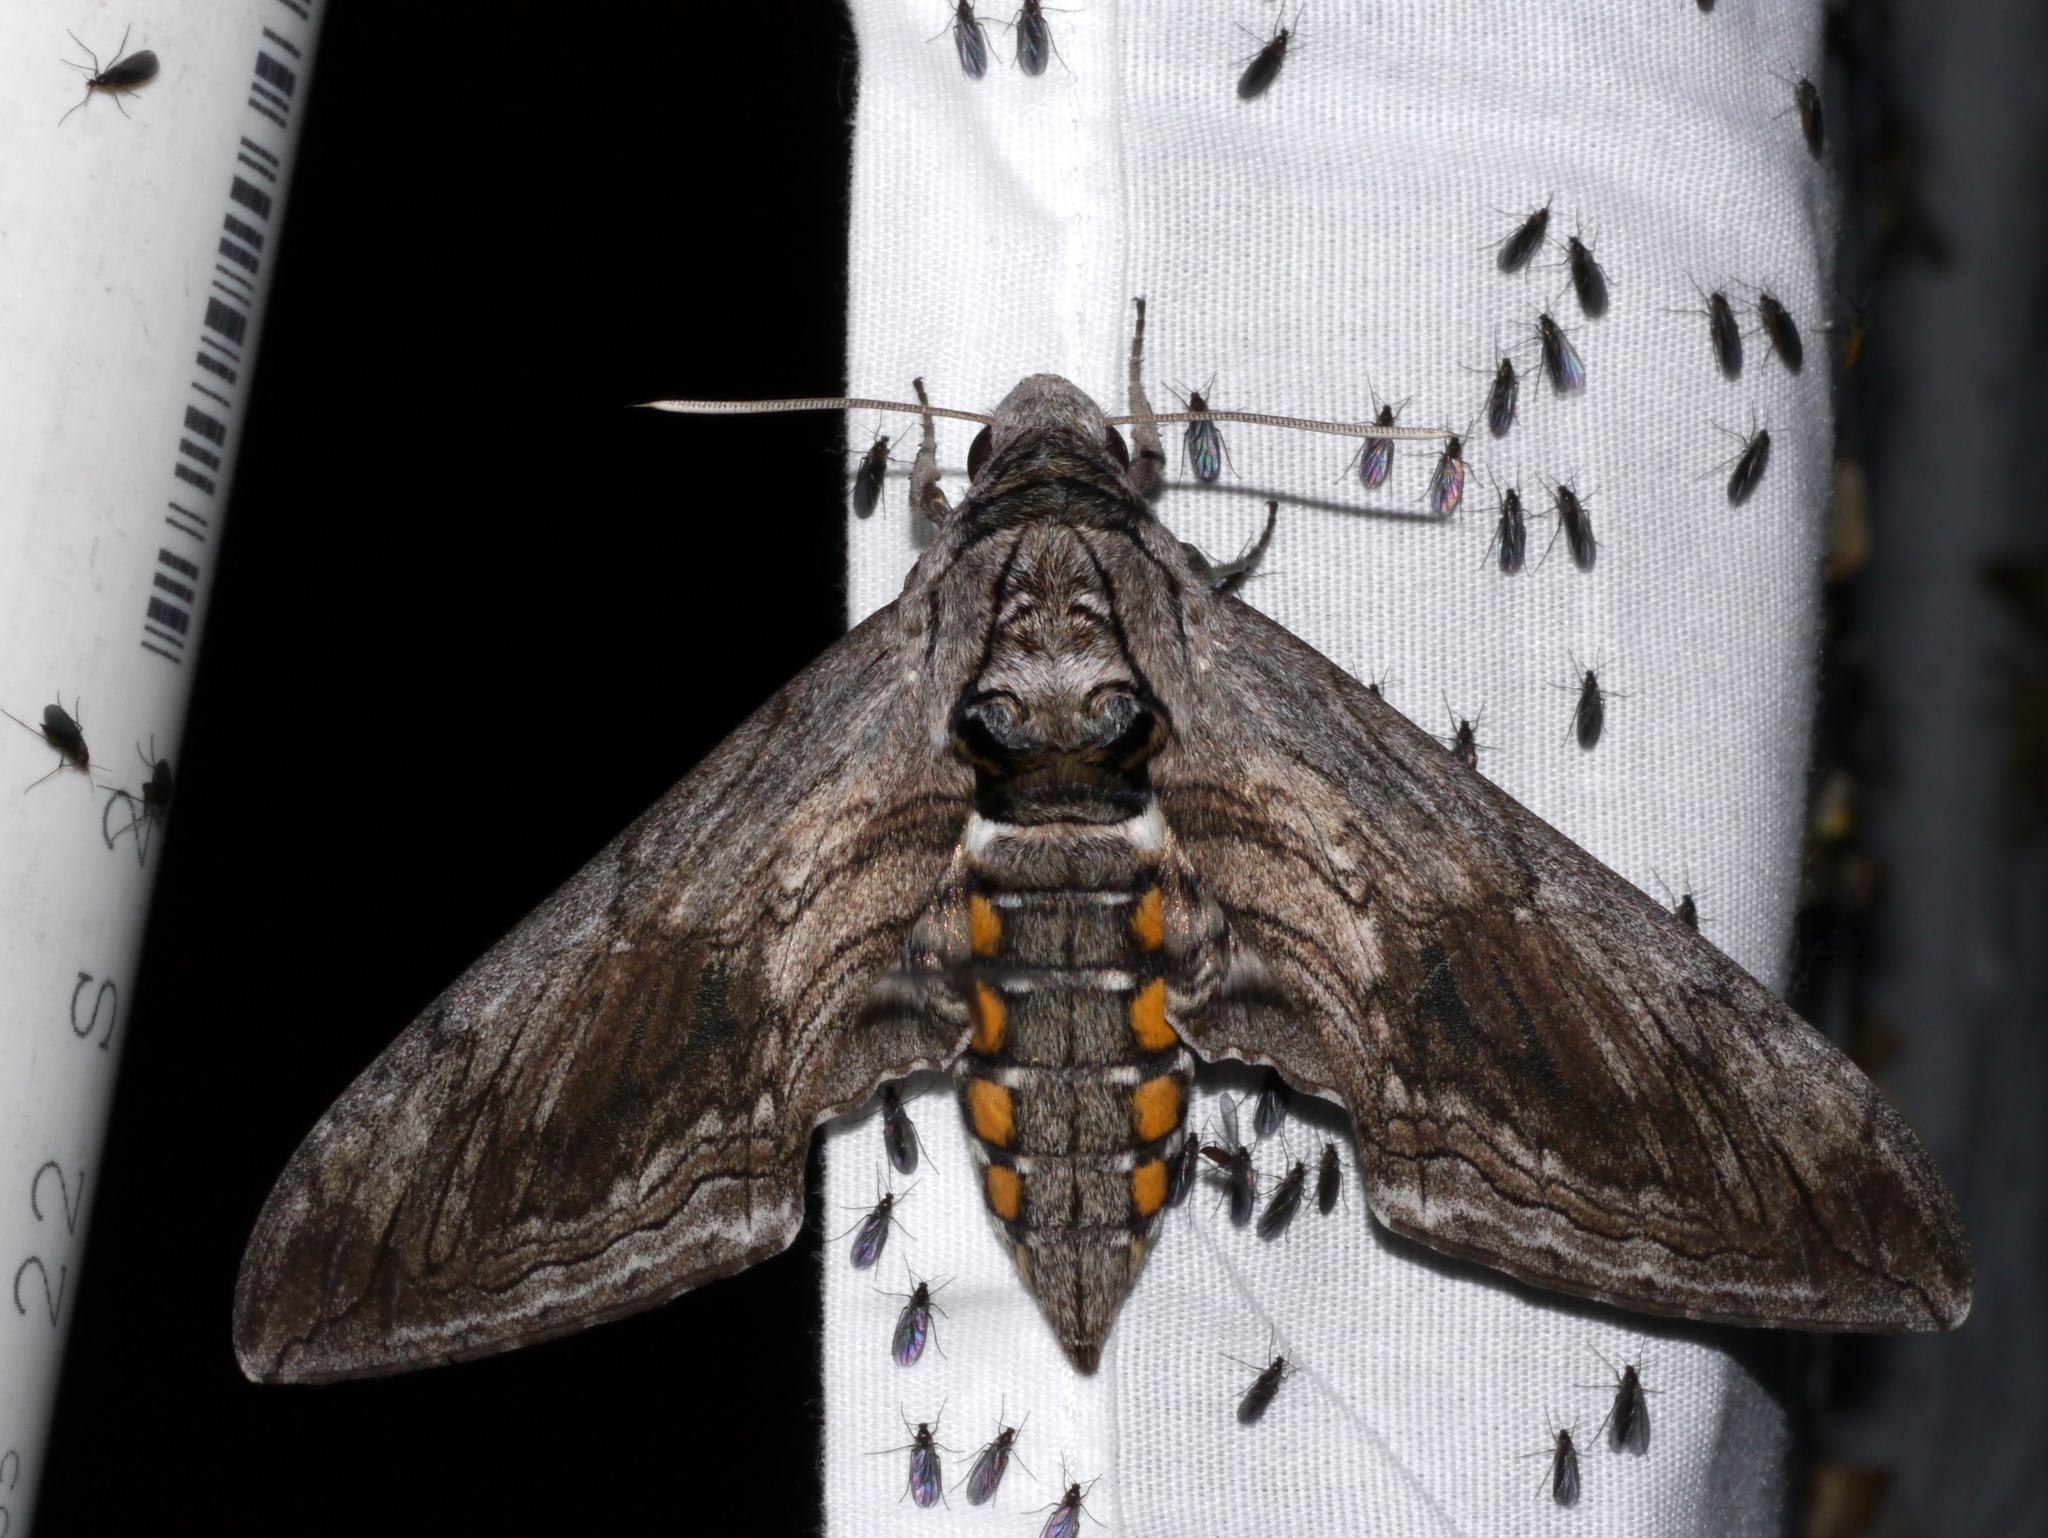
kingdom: Animalia
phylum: Arthropoda
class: Insecta
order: Lepidoptera
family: Sphingidae
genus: Manduca
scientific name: Manduca quinquemaculatus
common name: Five-spotted hawk-moth
